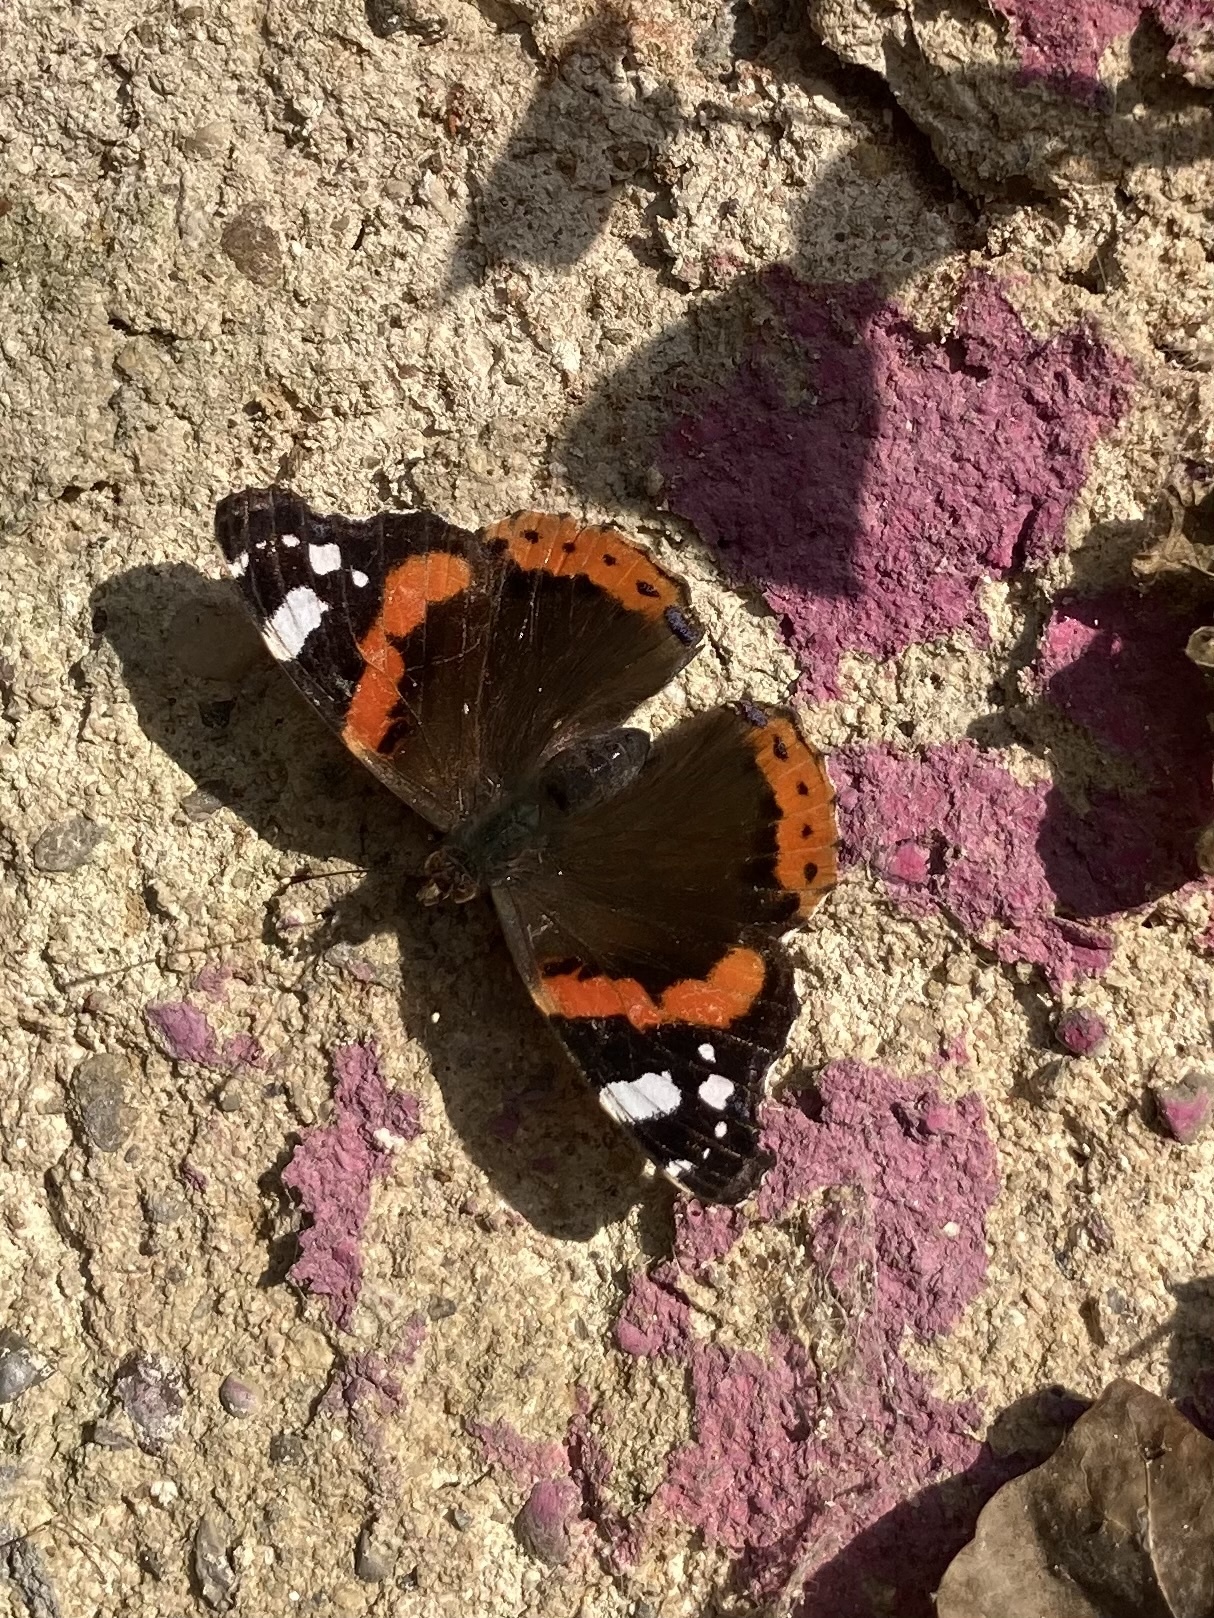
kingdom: Animalia
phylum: Arthropoda
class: Insecta
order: Lepidoptera
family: Nymphalidae
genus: Vanessa
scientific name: Vanessa atalanta
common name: Red admiral
